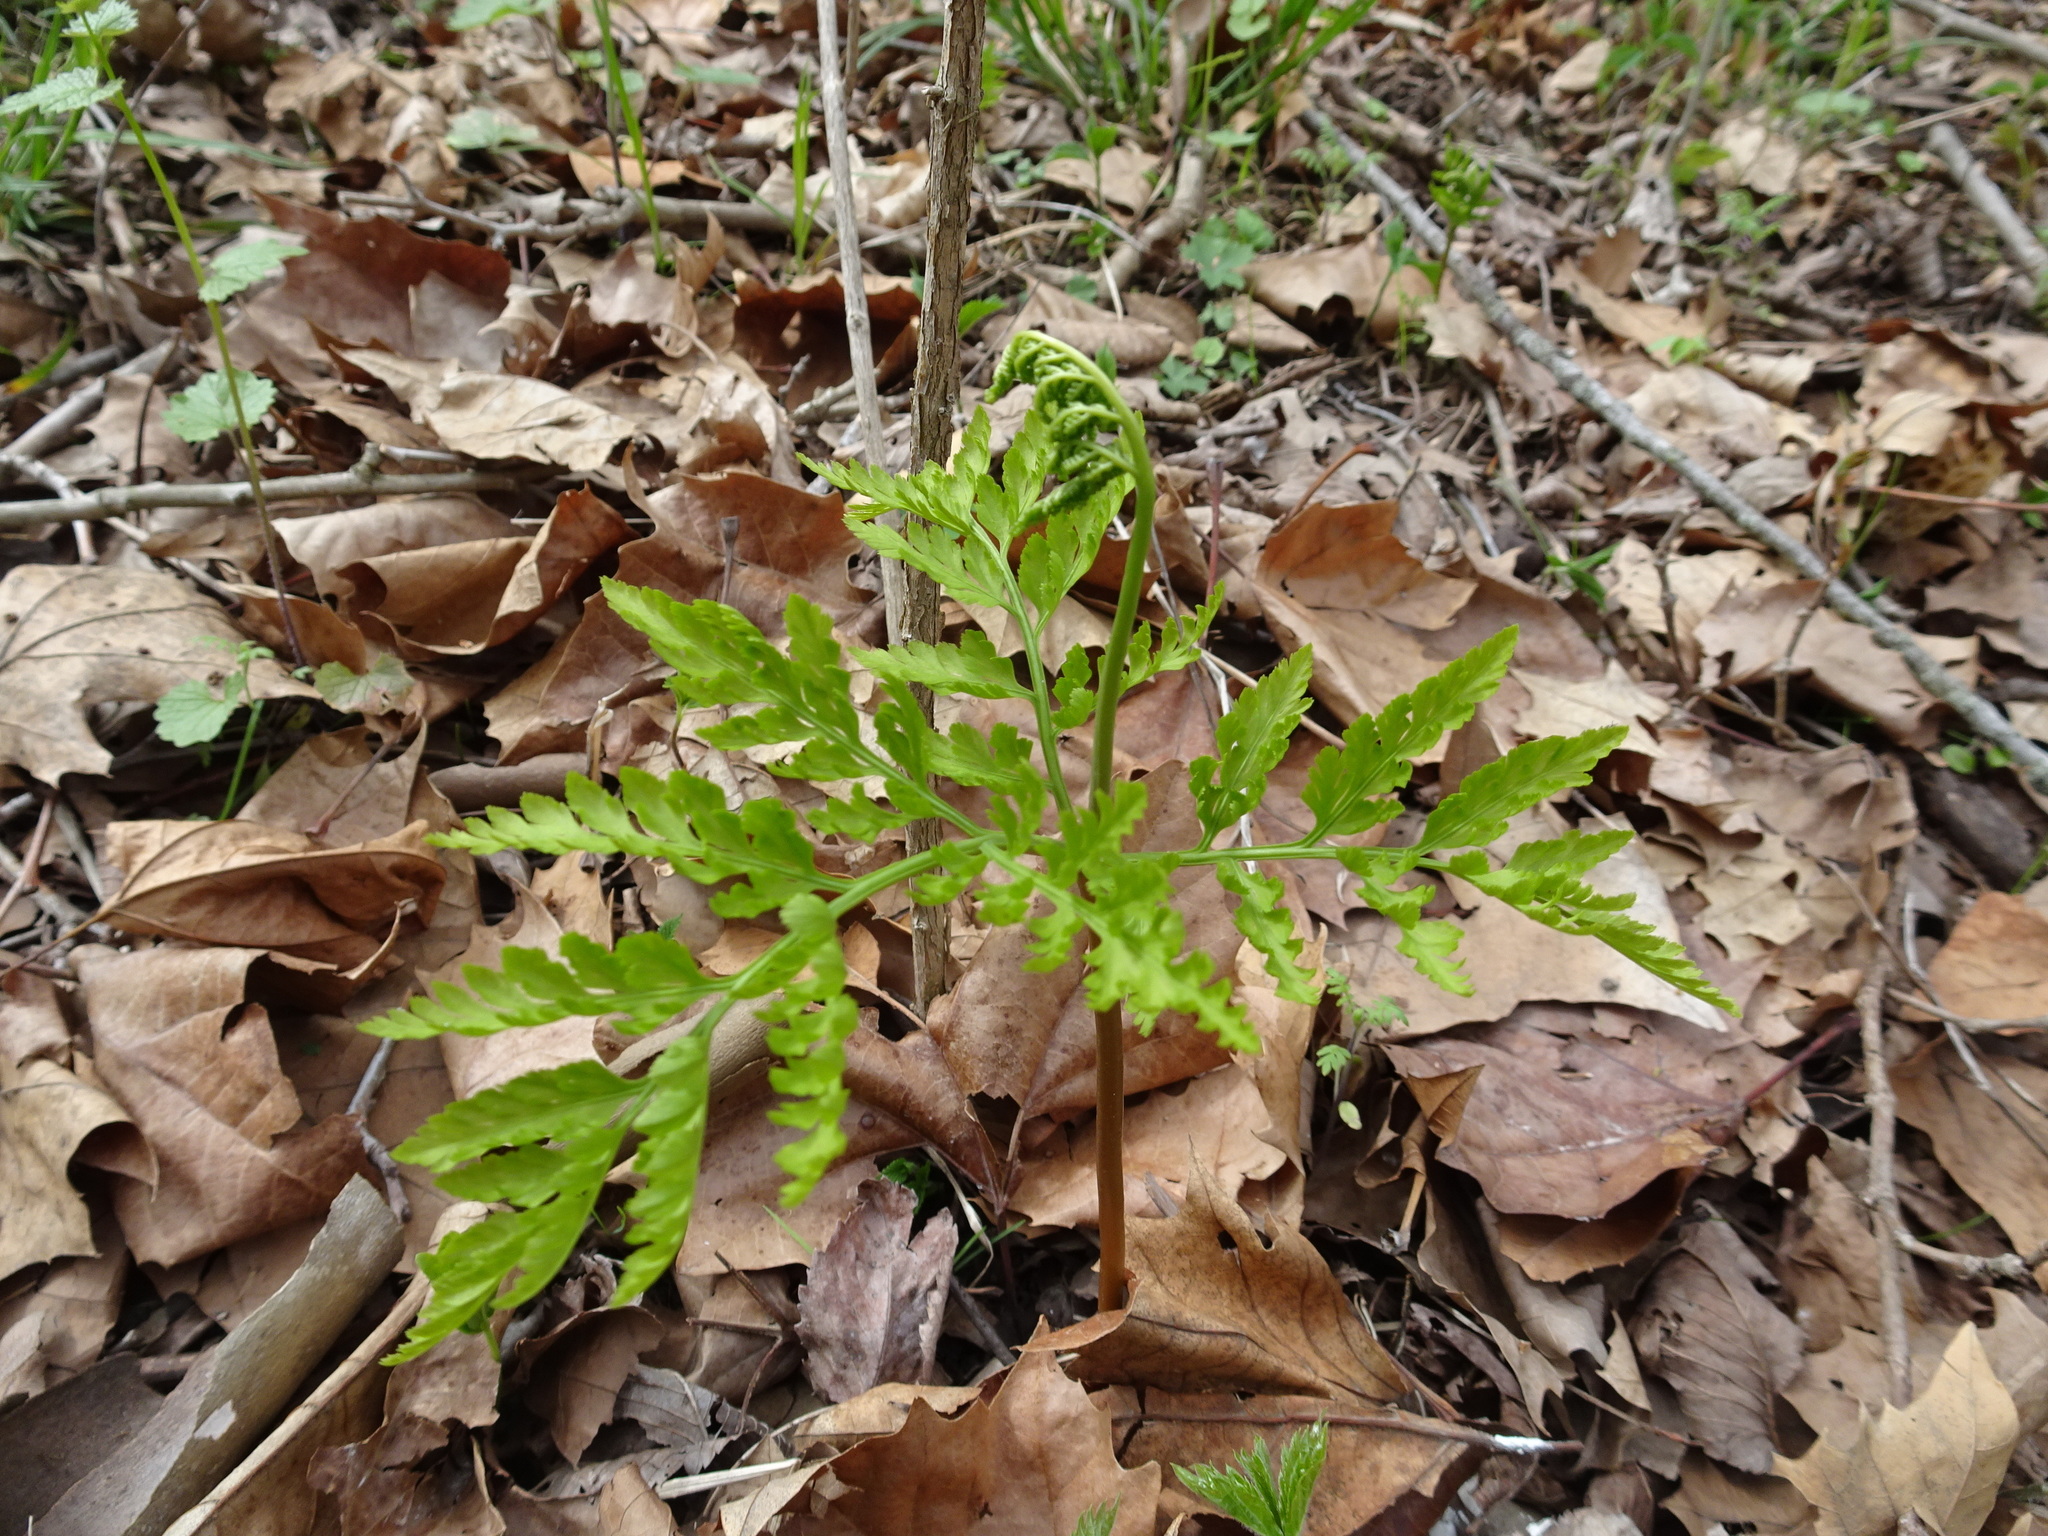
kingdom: Plantae
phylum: Tracheophyta
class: Polypodiopsida
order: Ophioglossales
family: Ophioglossaceae
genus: Botrypus
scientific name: Botrypus virginianus
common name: Common grapefern
